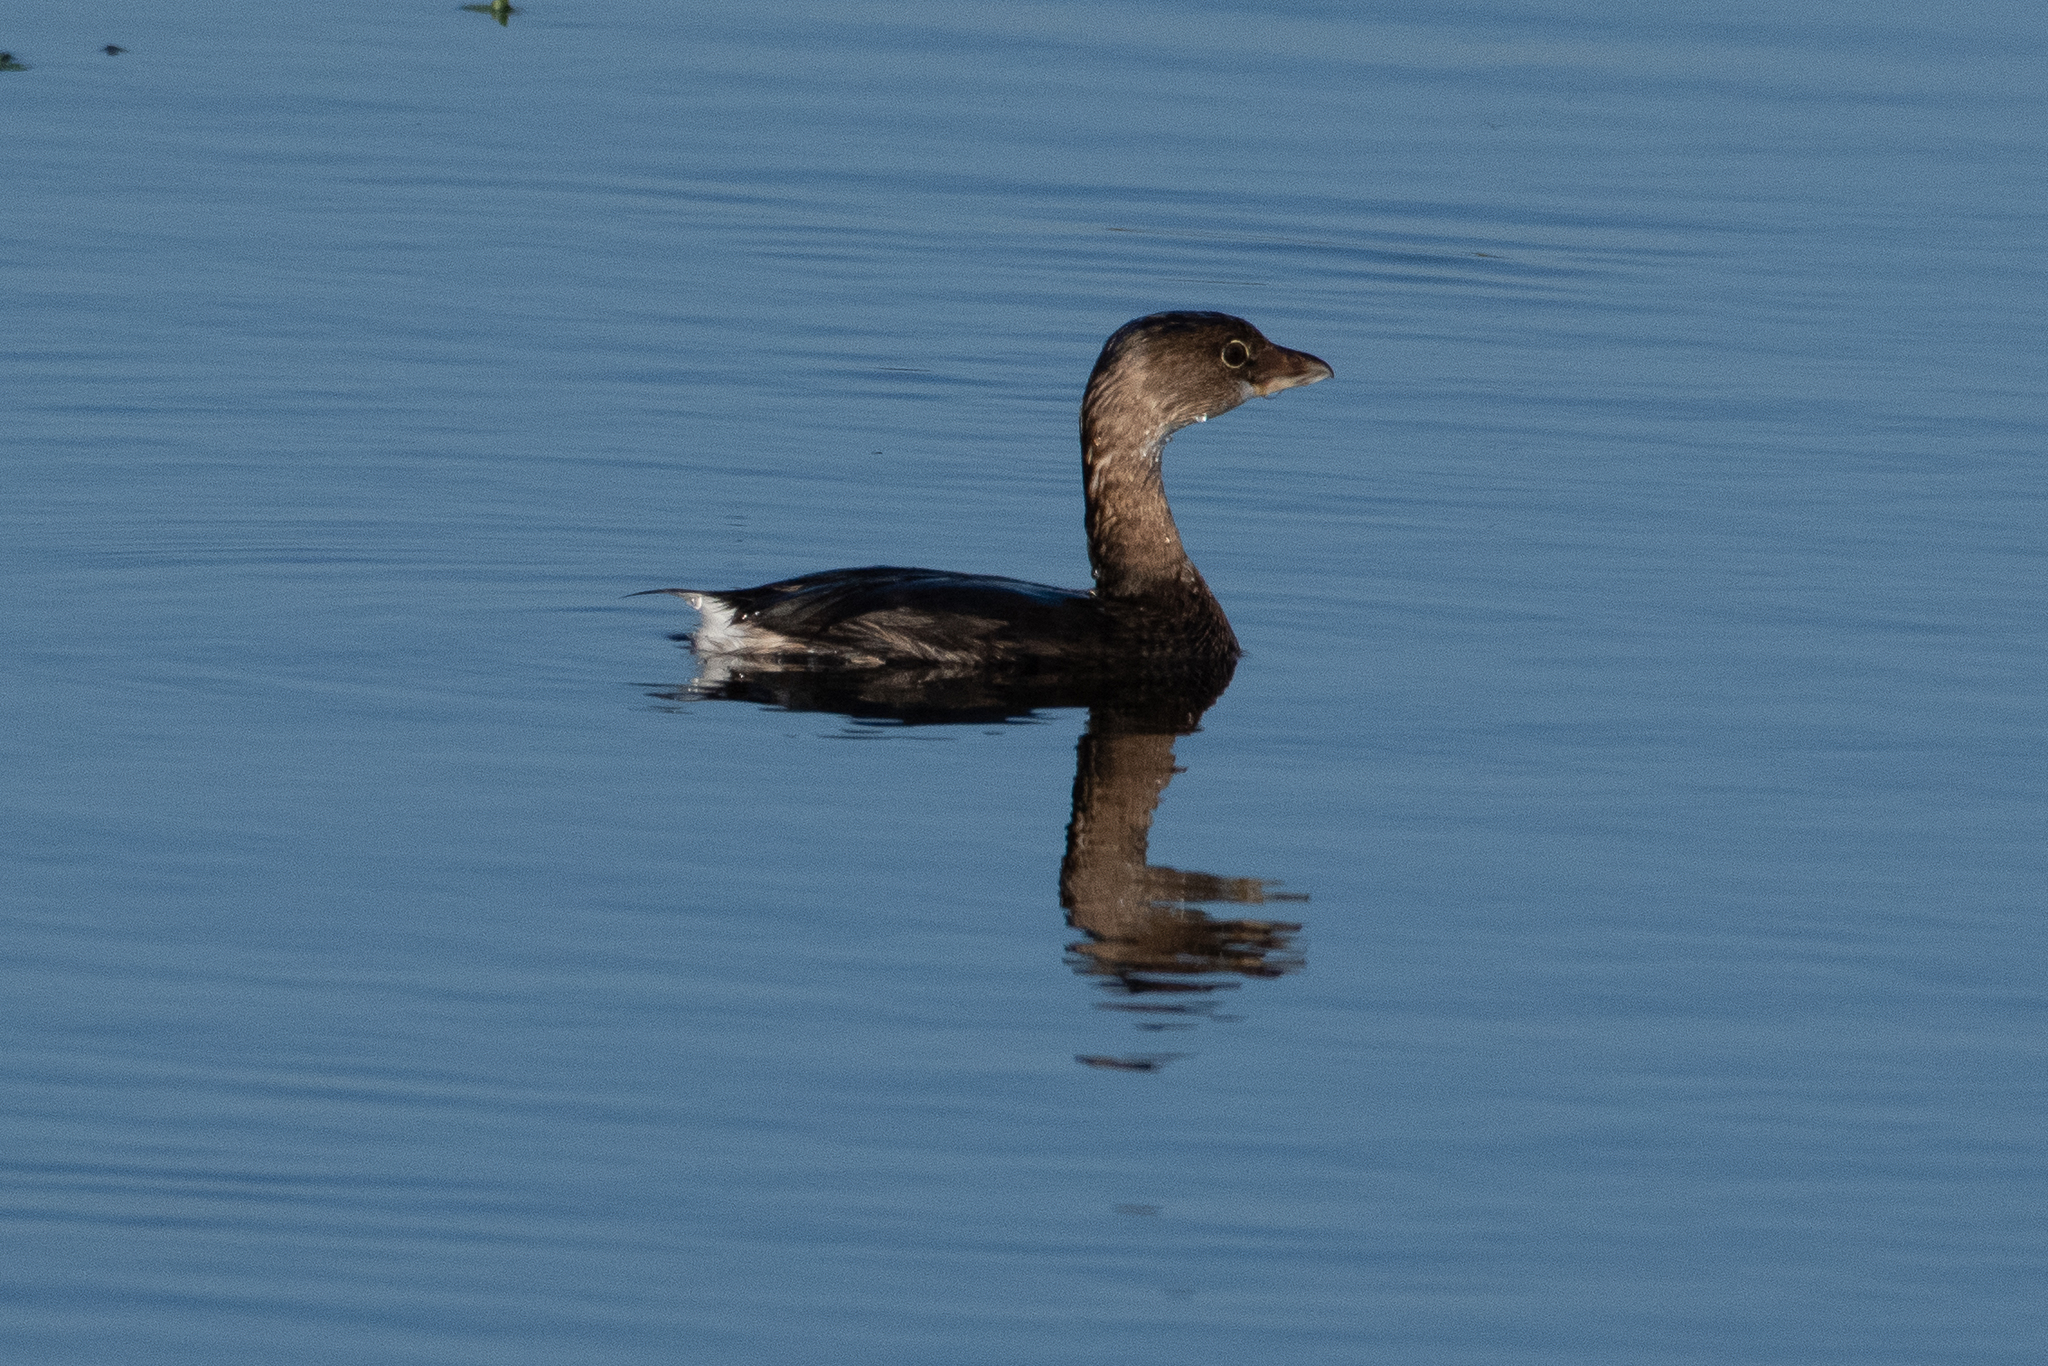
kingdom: Animalia
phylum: Chordata
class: Aves
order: Podicipediformes
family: Podicipedidae
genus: Podilymbus
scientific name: Podilymbus podiceps
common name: Pied-billed grebe
